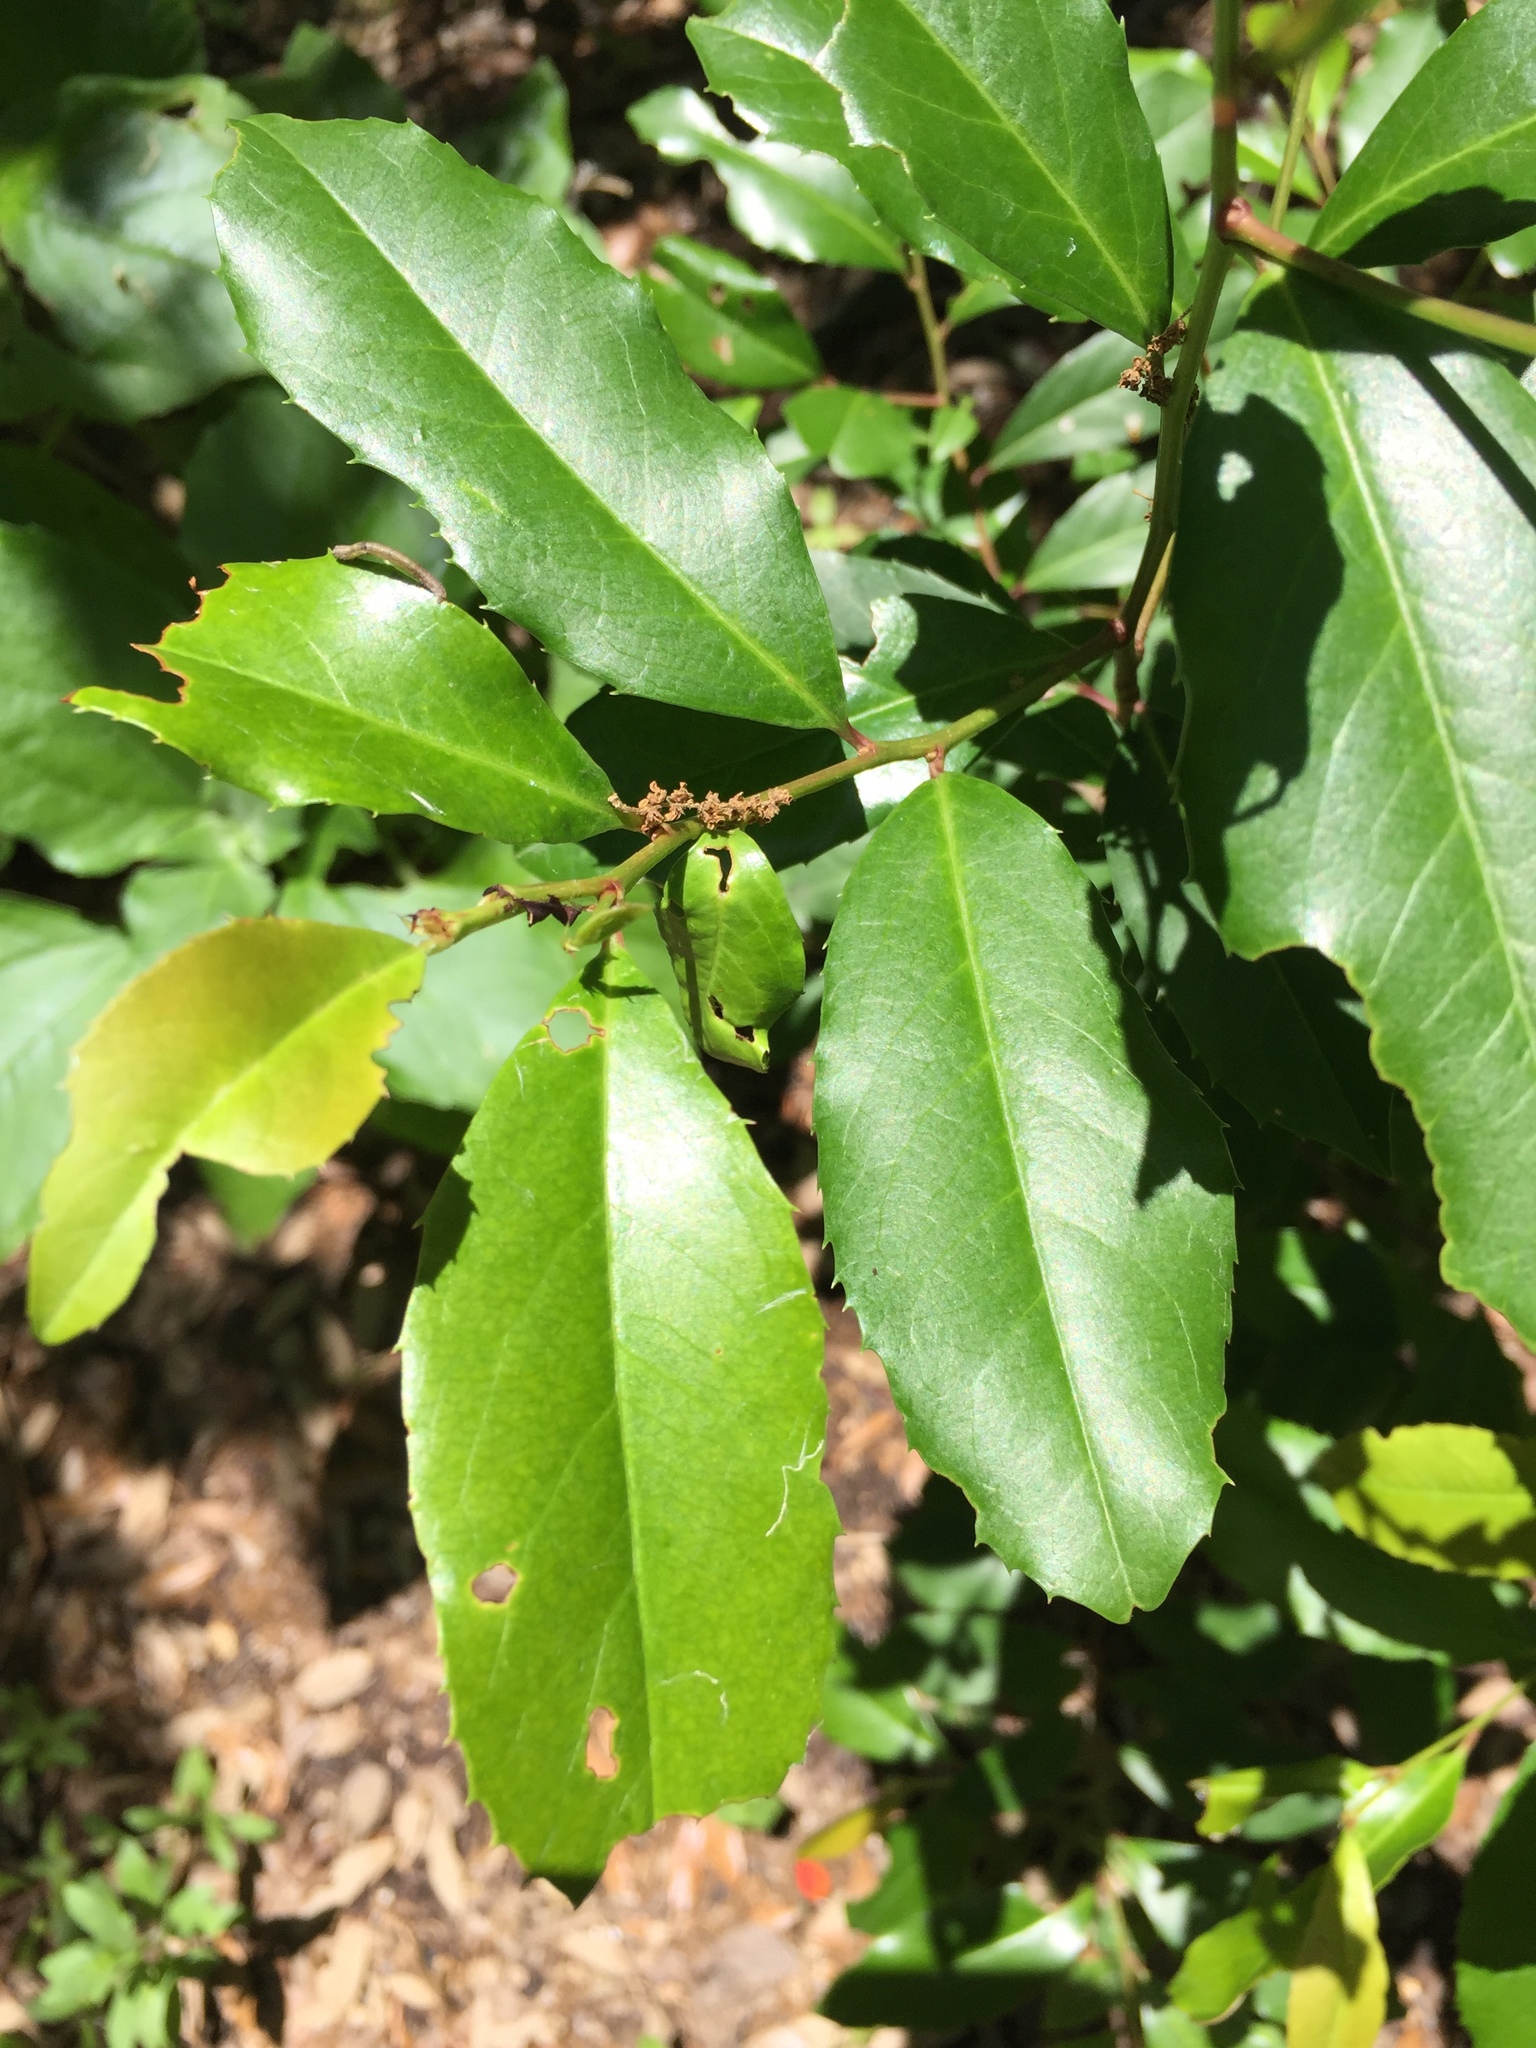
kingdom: Plantae
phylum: Tracheophyta
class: Magnoliopsida
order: Rosales
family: Rosaceae
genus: Prunus
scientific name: Prunus caroliniana
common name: Carolina laurel cherry
